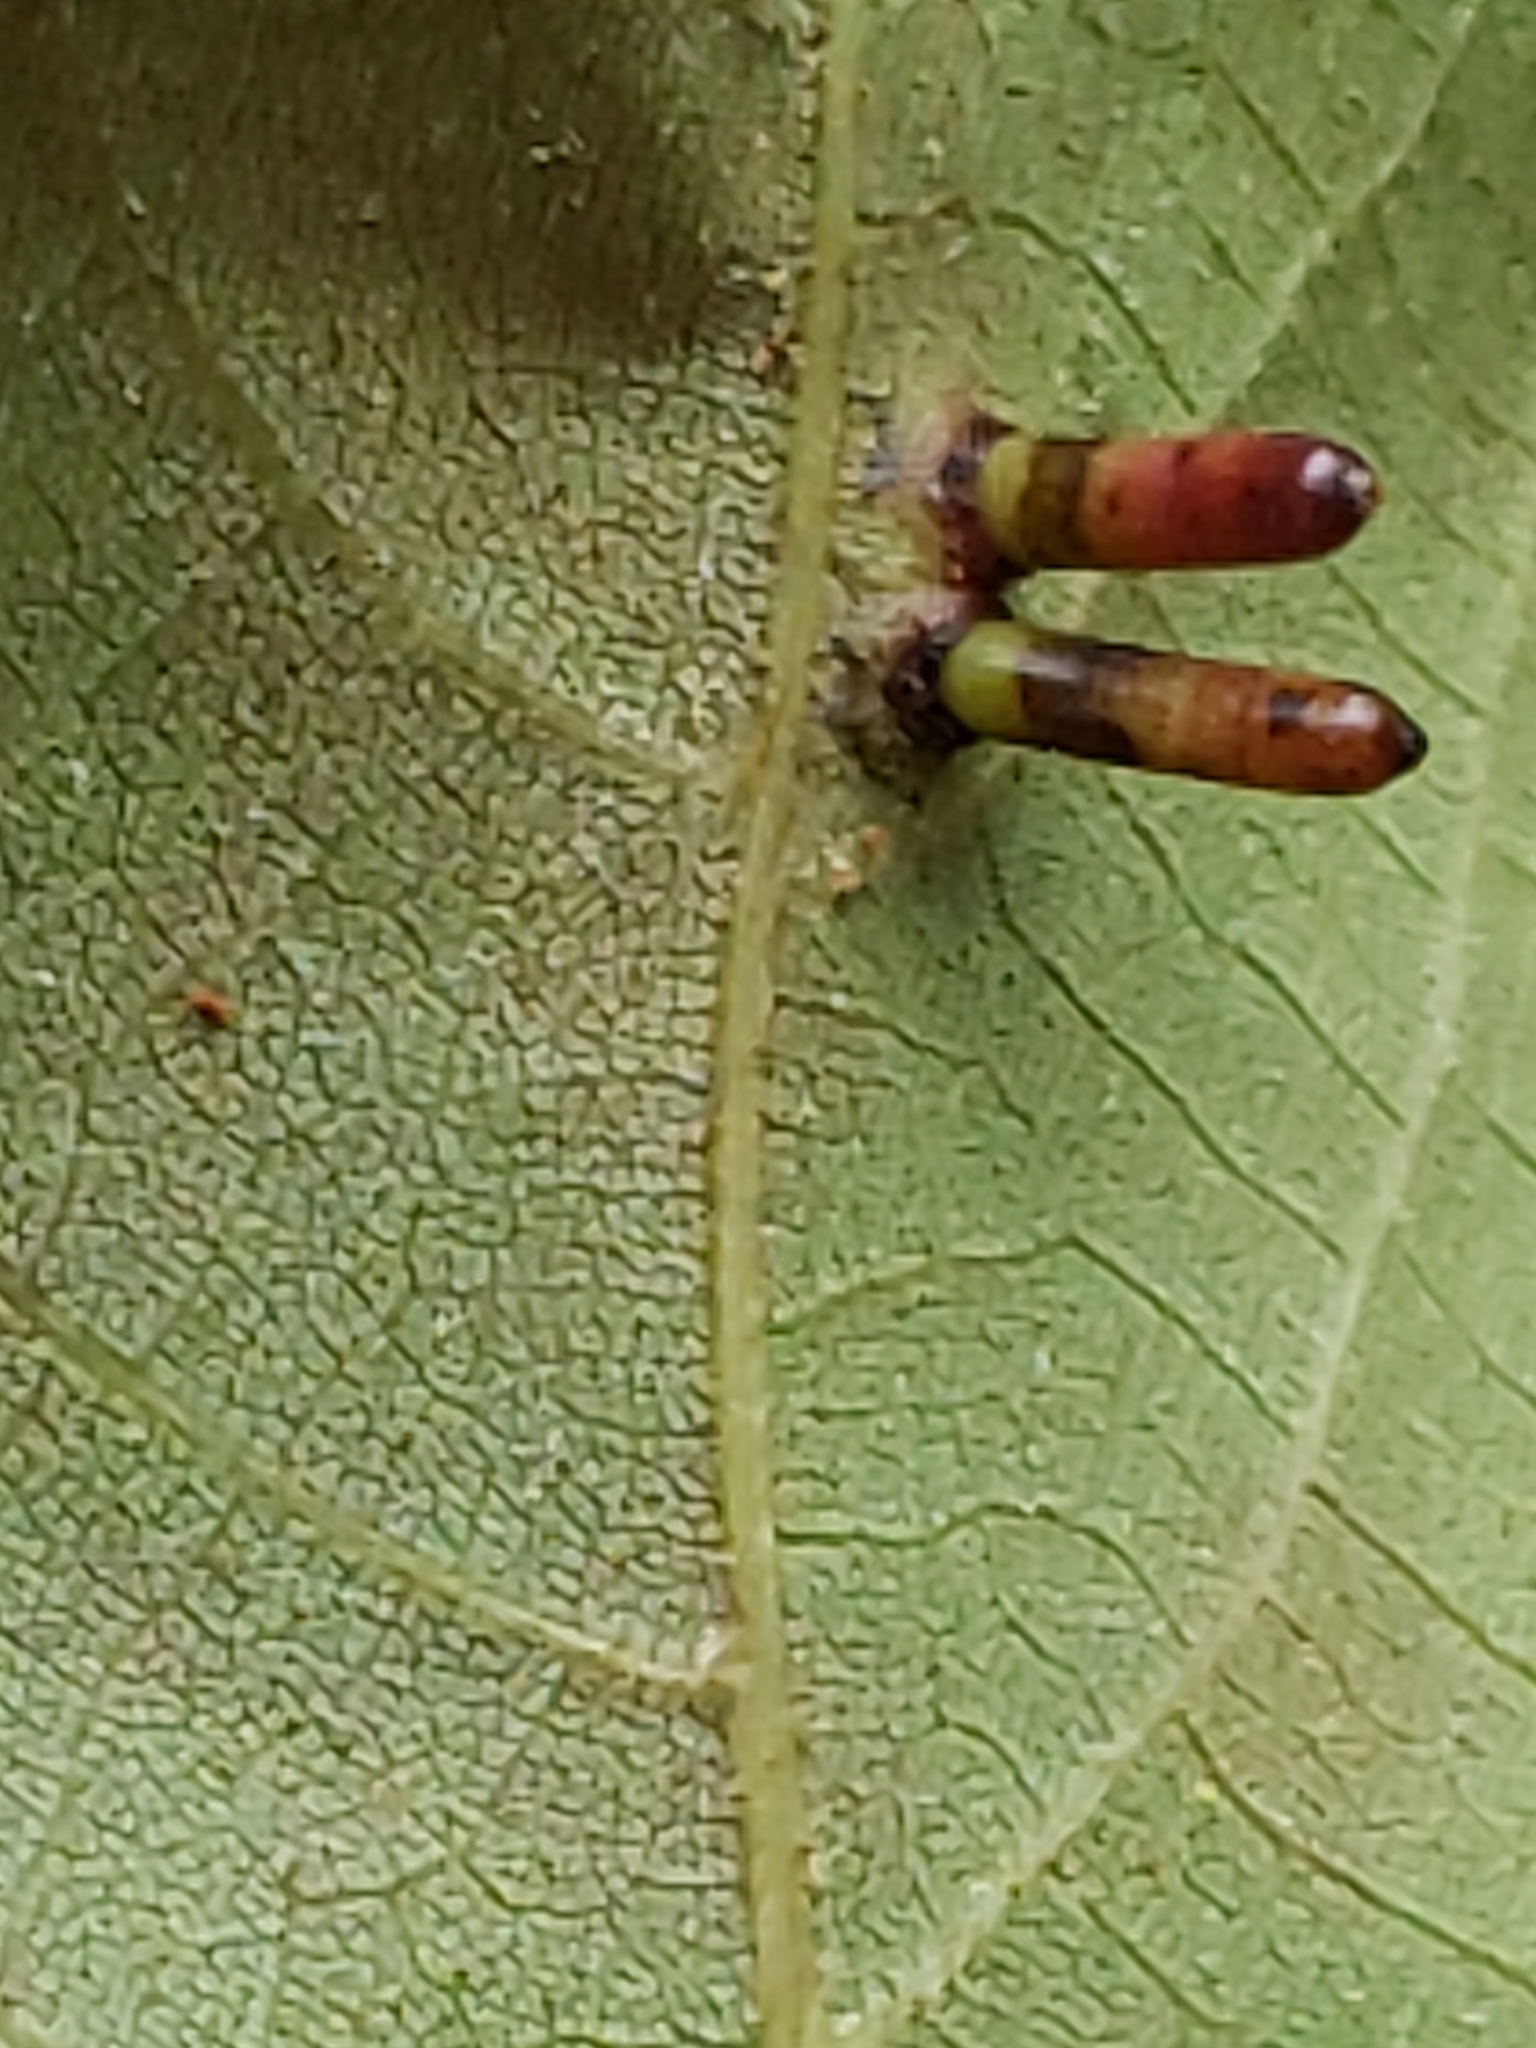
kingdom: Animalia
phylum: Arthropoda
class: Insecta
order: Diptera
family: Cecidomyiidae
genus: Caryomyia
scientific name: Caryomyia tubicola
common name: Hickory bullet gall midge
